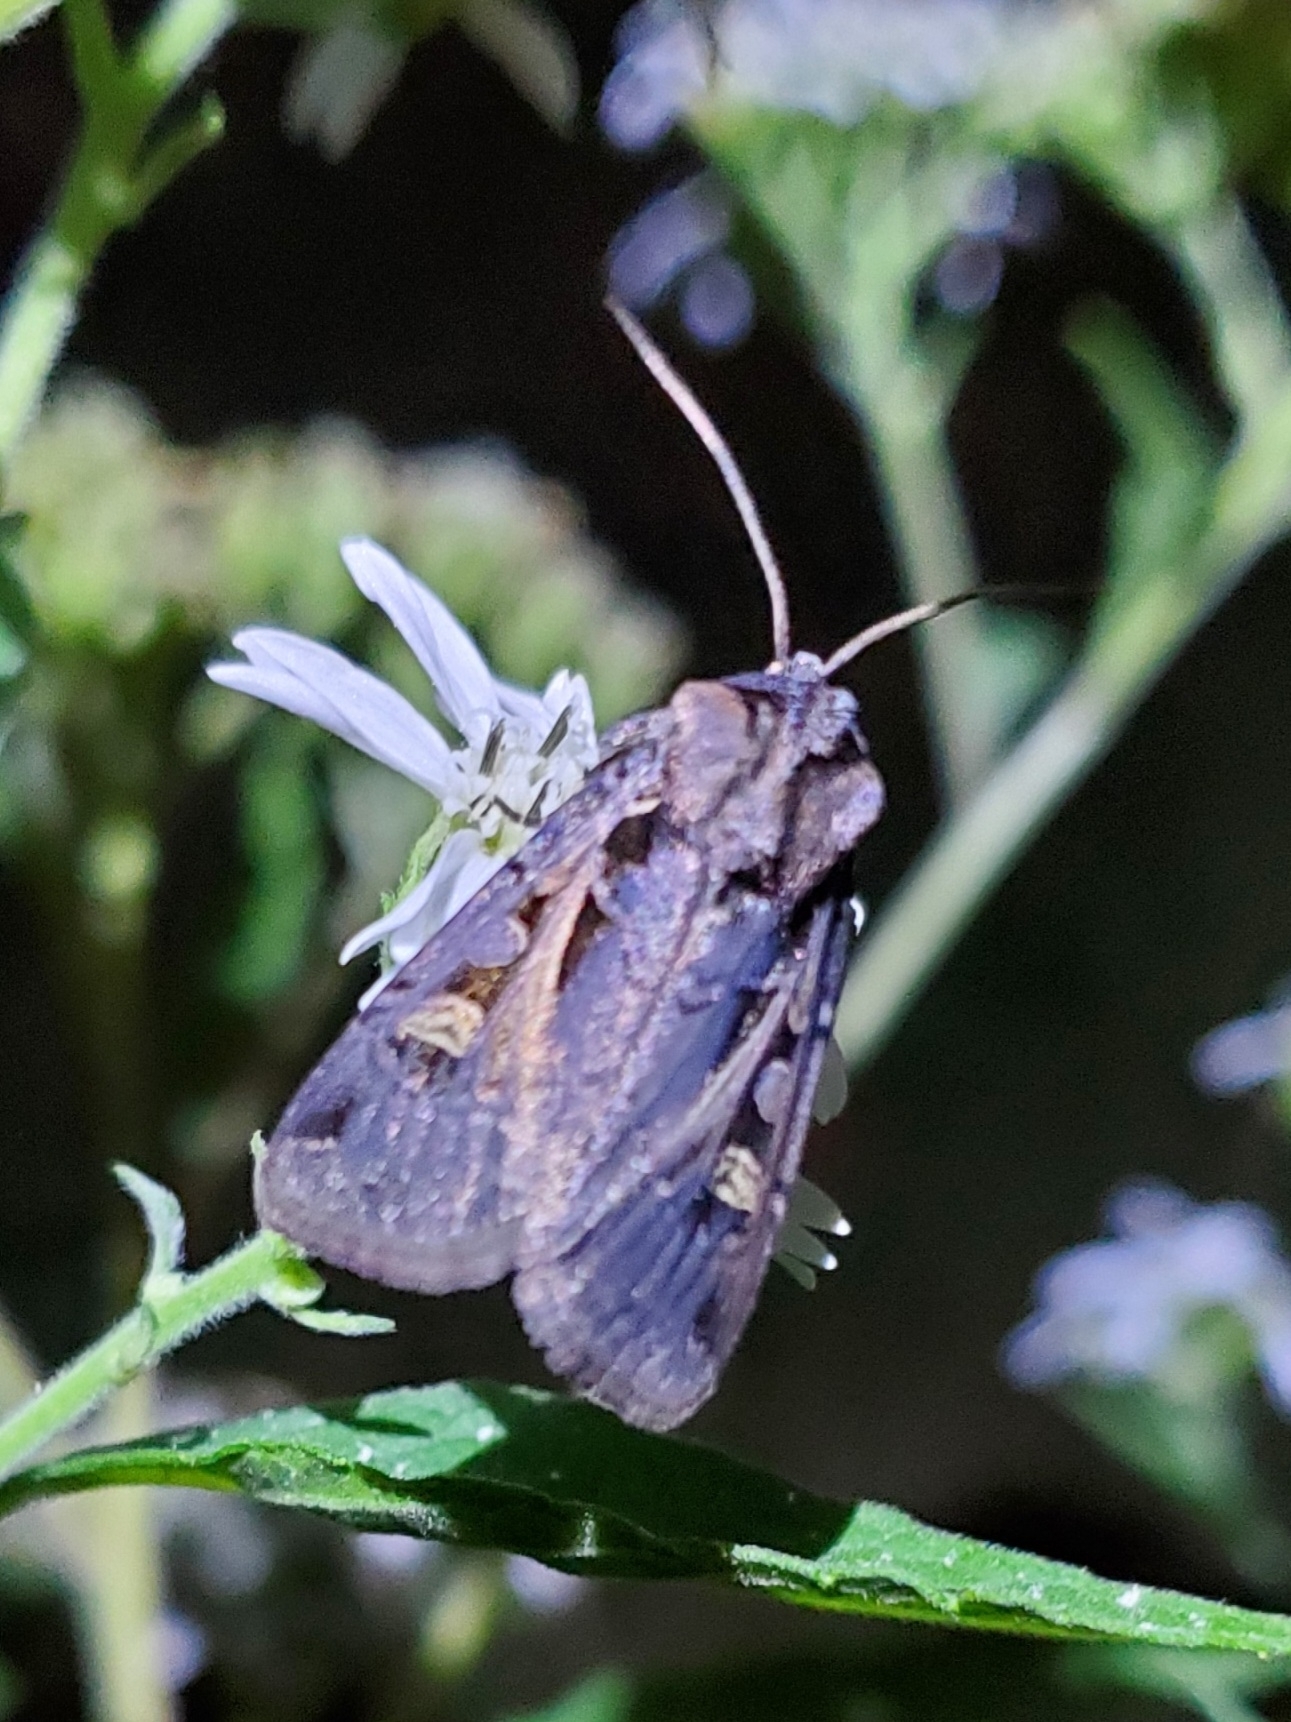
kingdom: Animalia
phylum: Arthropoda
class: Insecta
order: Lepidoptera
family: Noctuidae
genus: Feltia
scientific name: Feltia herilis
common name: Master's dart
